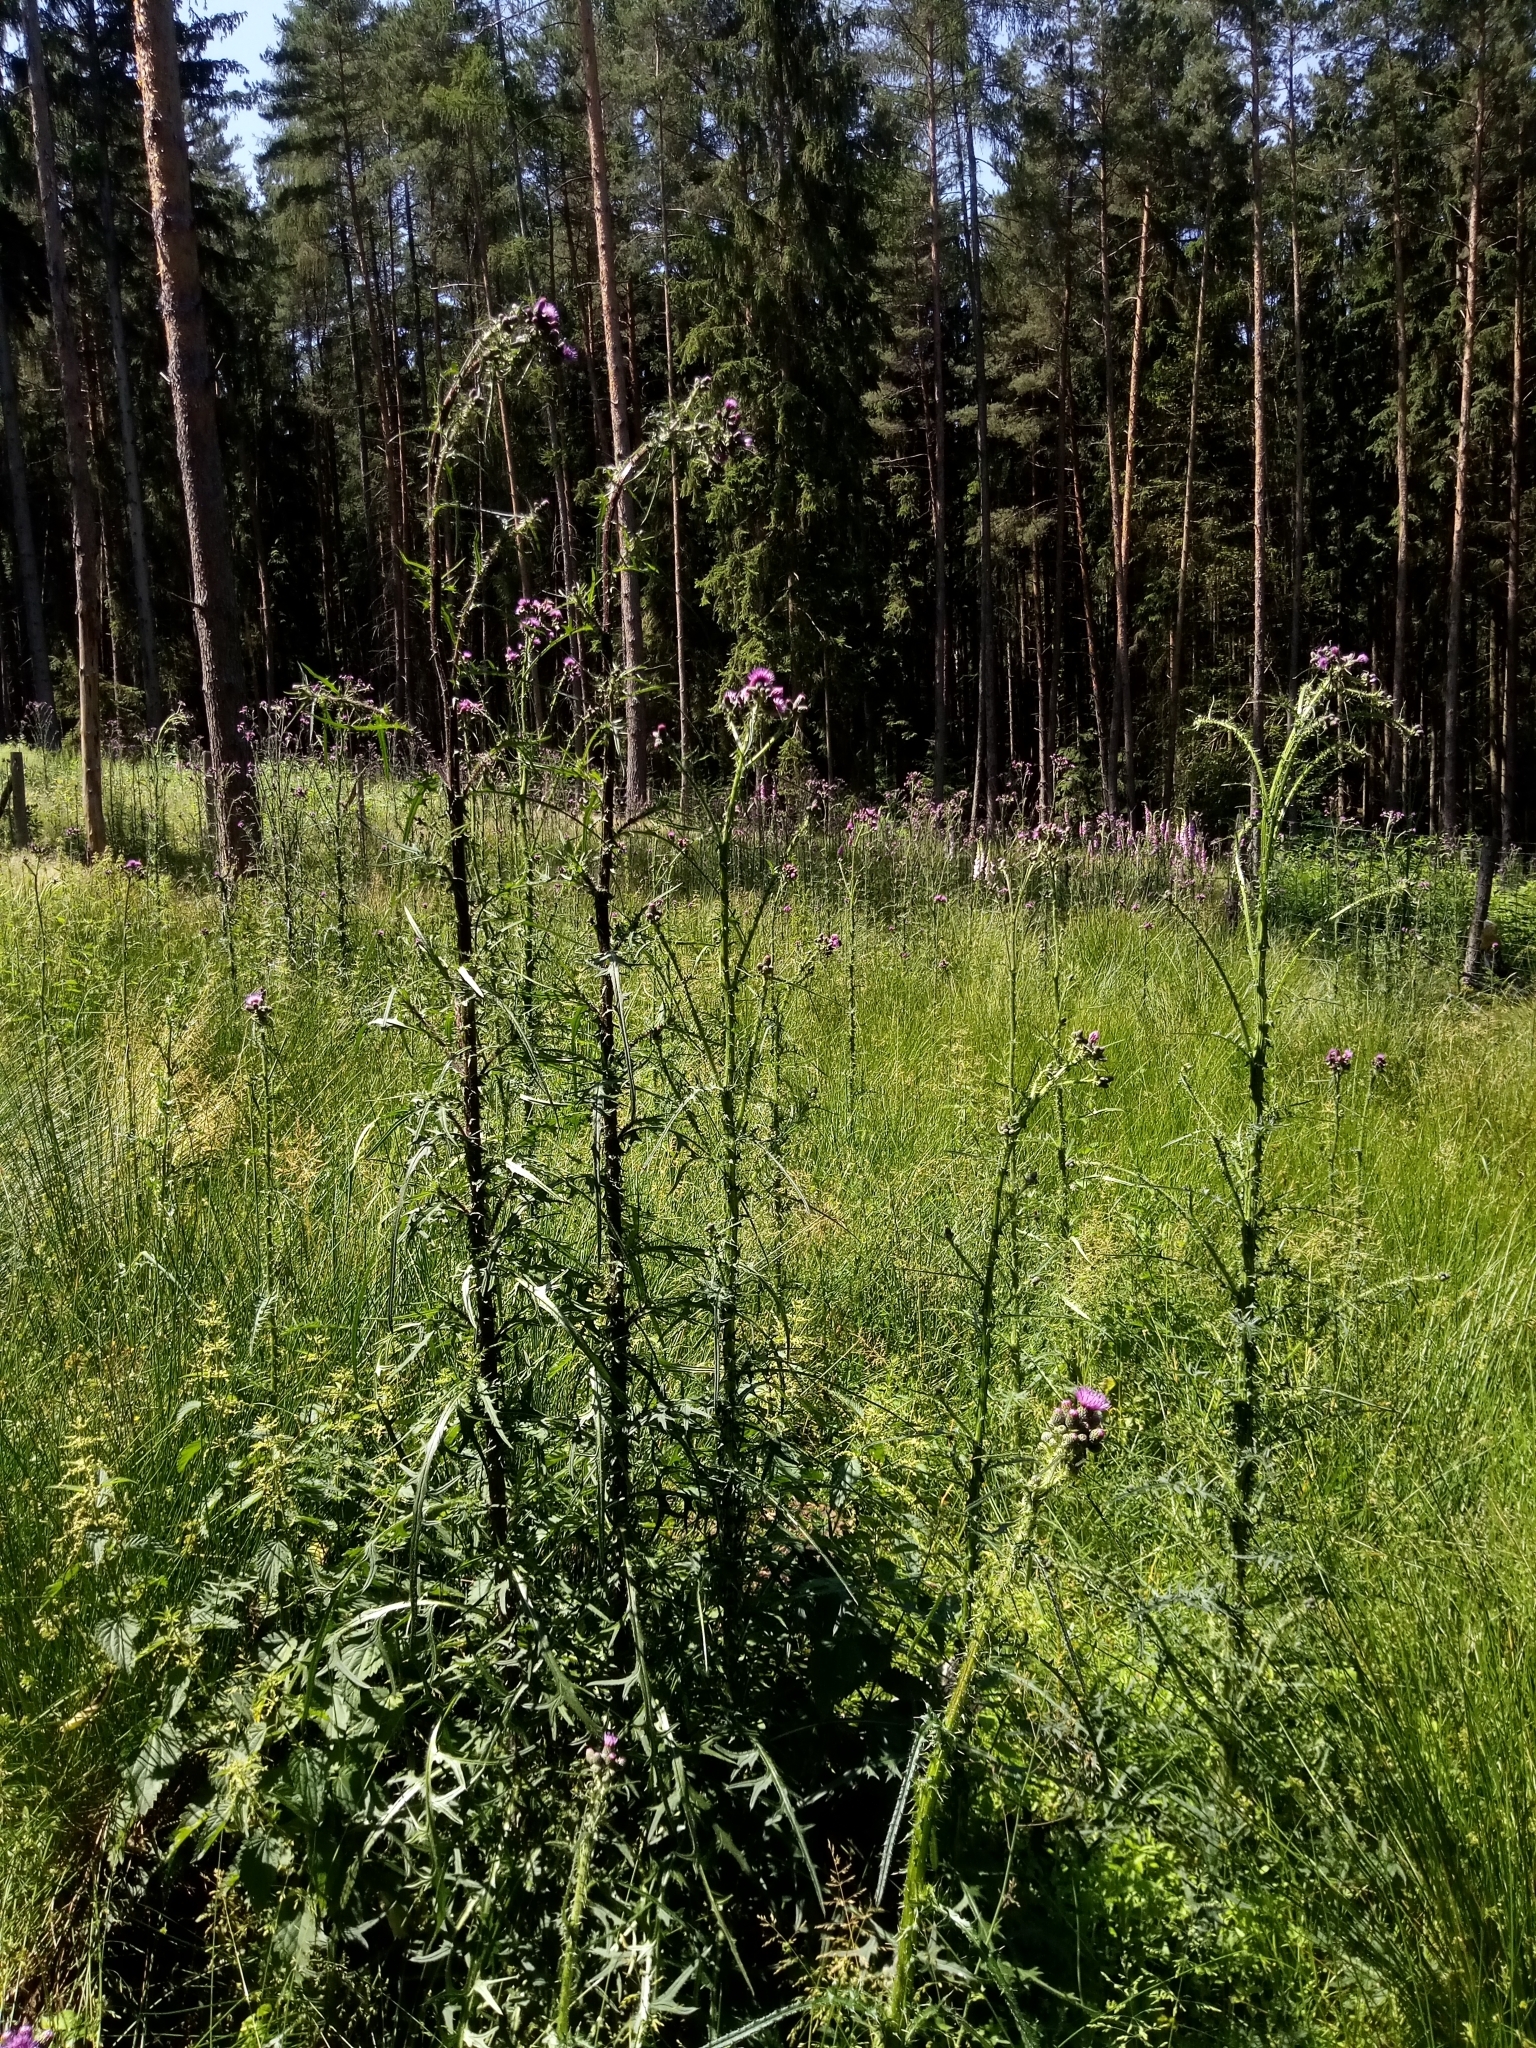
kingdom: Plantae
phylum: Tracheophyta
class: Magnoliopsida
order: Asterales
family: Asteraceae
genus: Cirsium
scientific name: Cirsium palustre
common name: Marsh thistle
